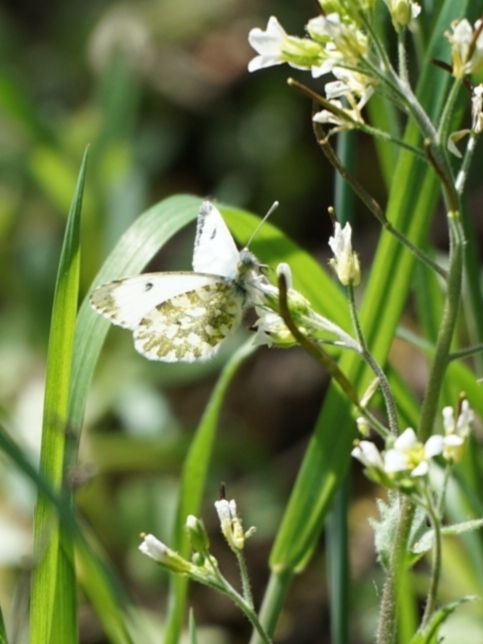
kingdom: Animalia
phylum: Arthropoda
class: Insecta
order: Lepidoptera
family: Pieridae
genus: Anthocharis
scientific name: Anthocharis cardamines
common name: Orange-tip
